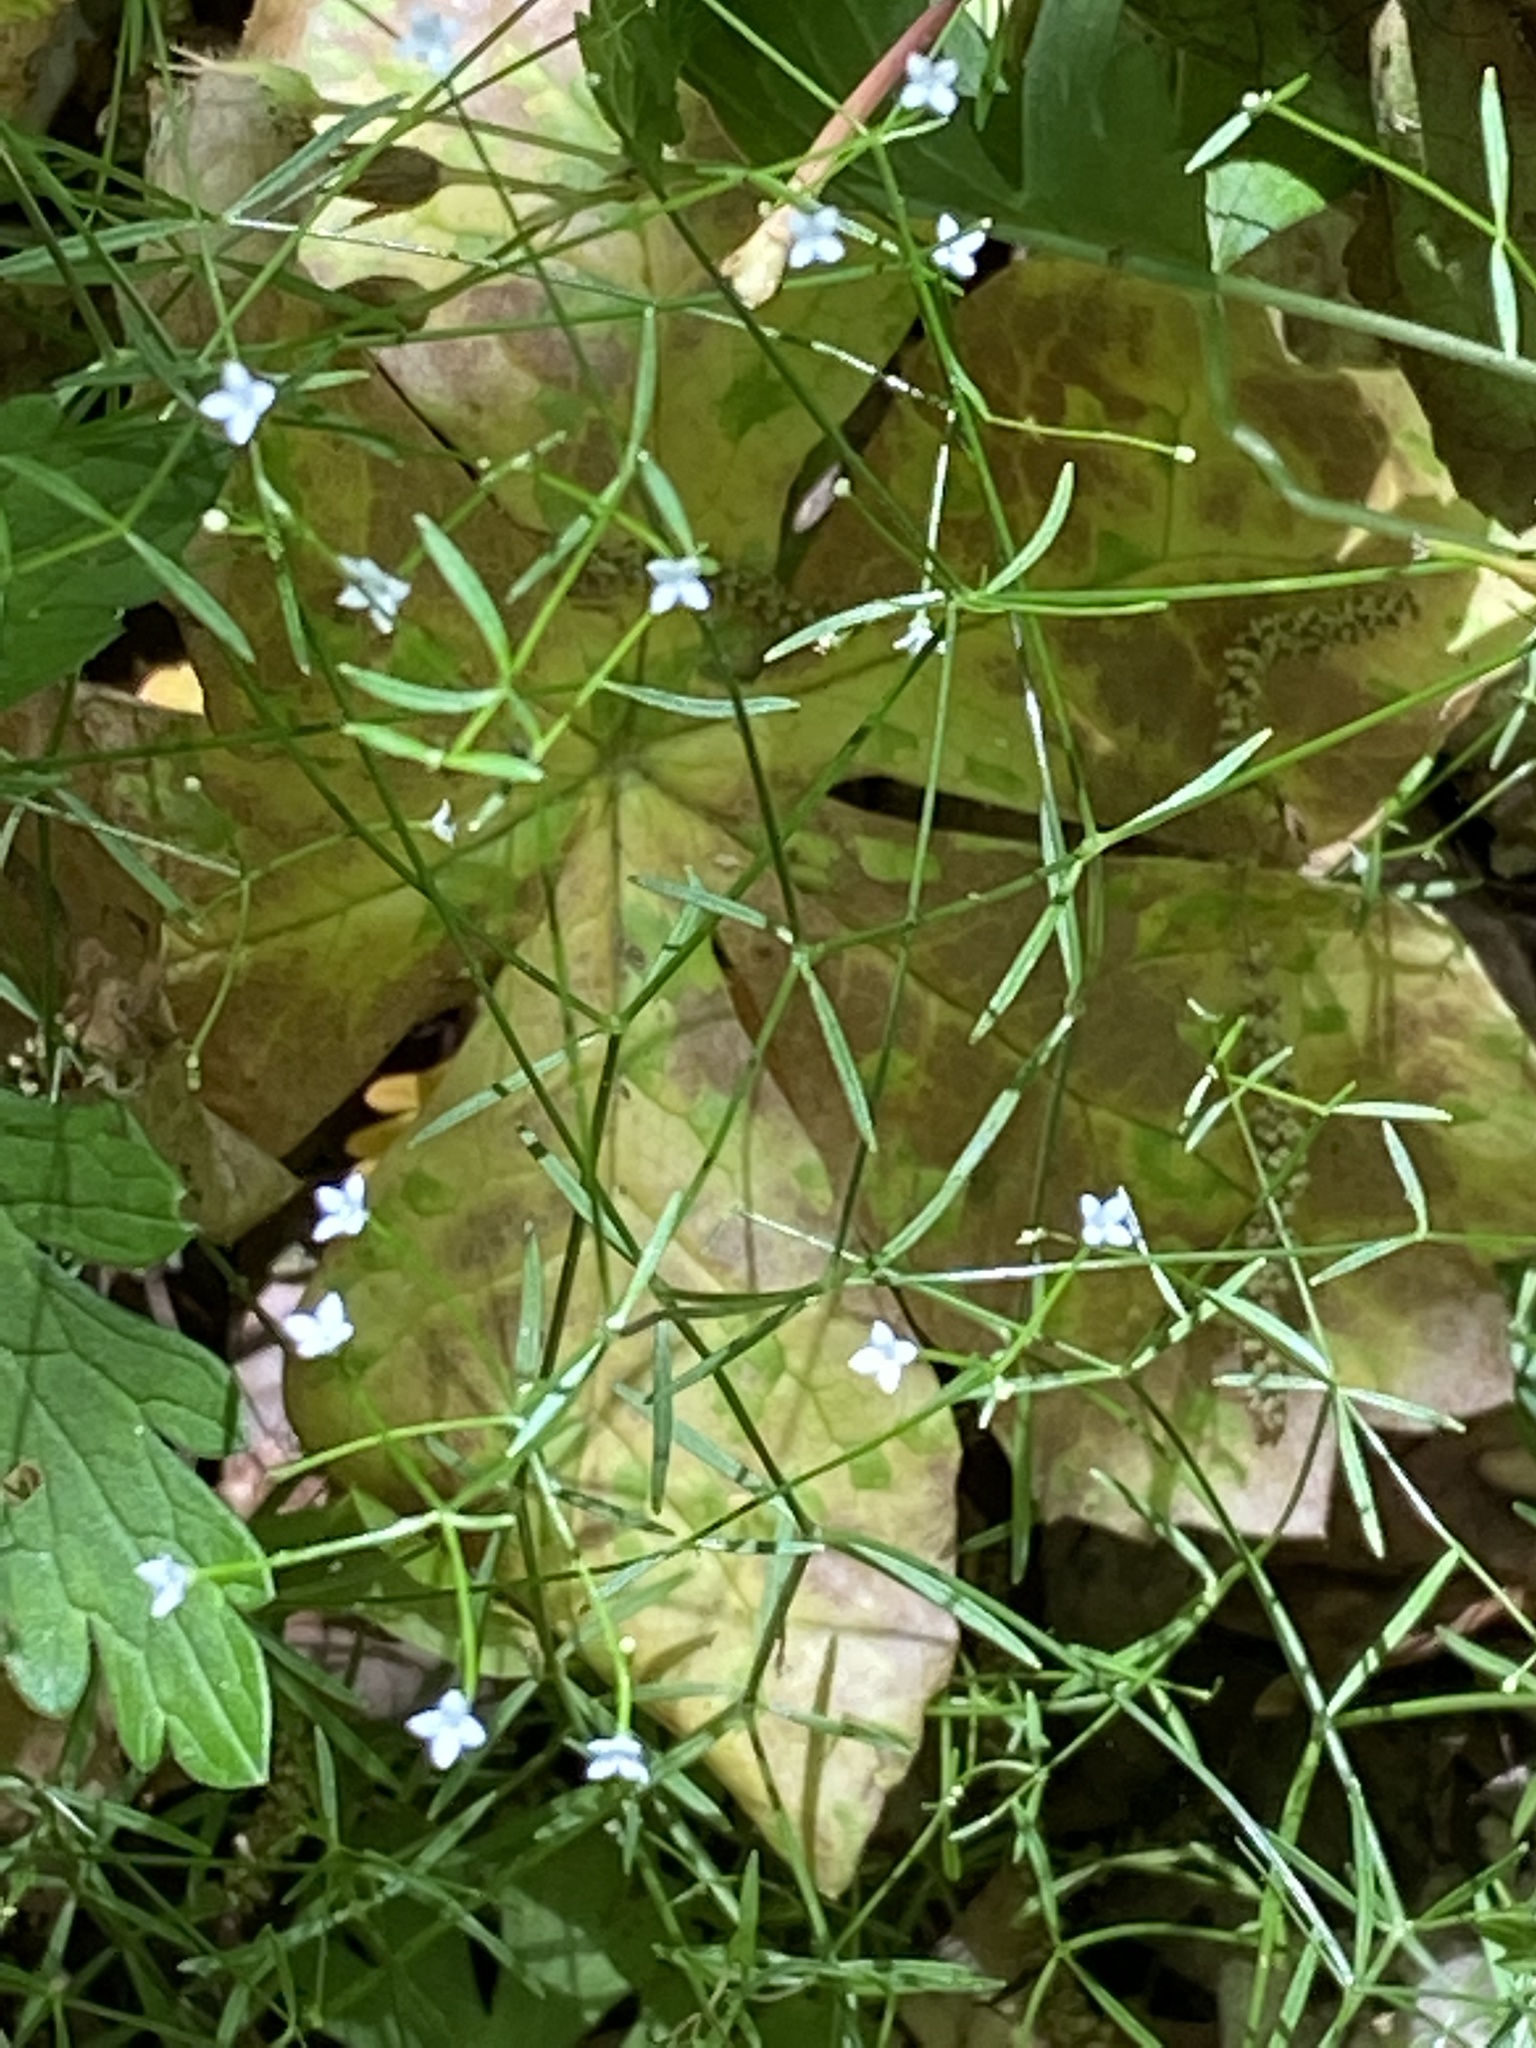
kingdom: Plantae
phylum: Tracheophyta
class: Magnoliopsida
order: Gentianales
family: Rubiaceae
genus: Galium
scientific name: Galium obtusum
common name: Blunt-leaved bedstraw
